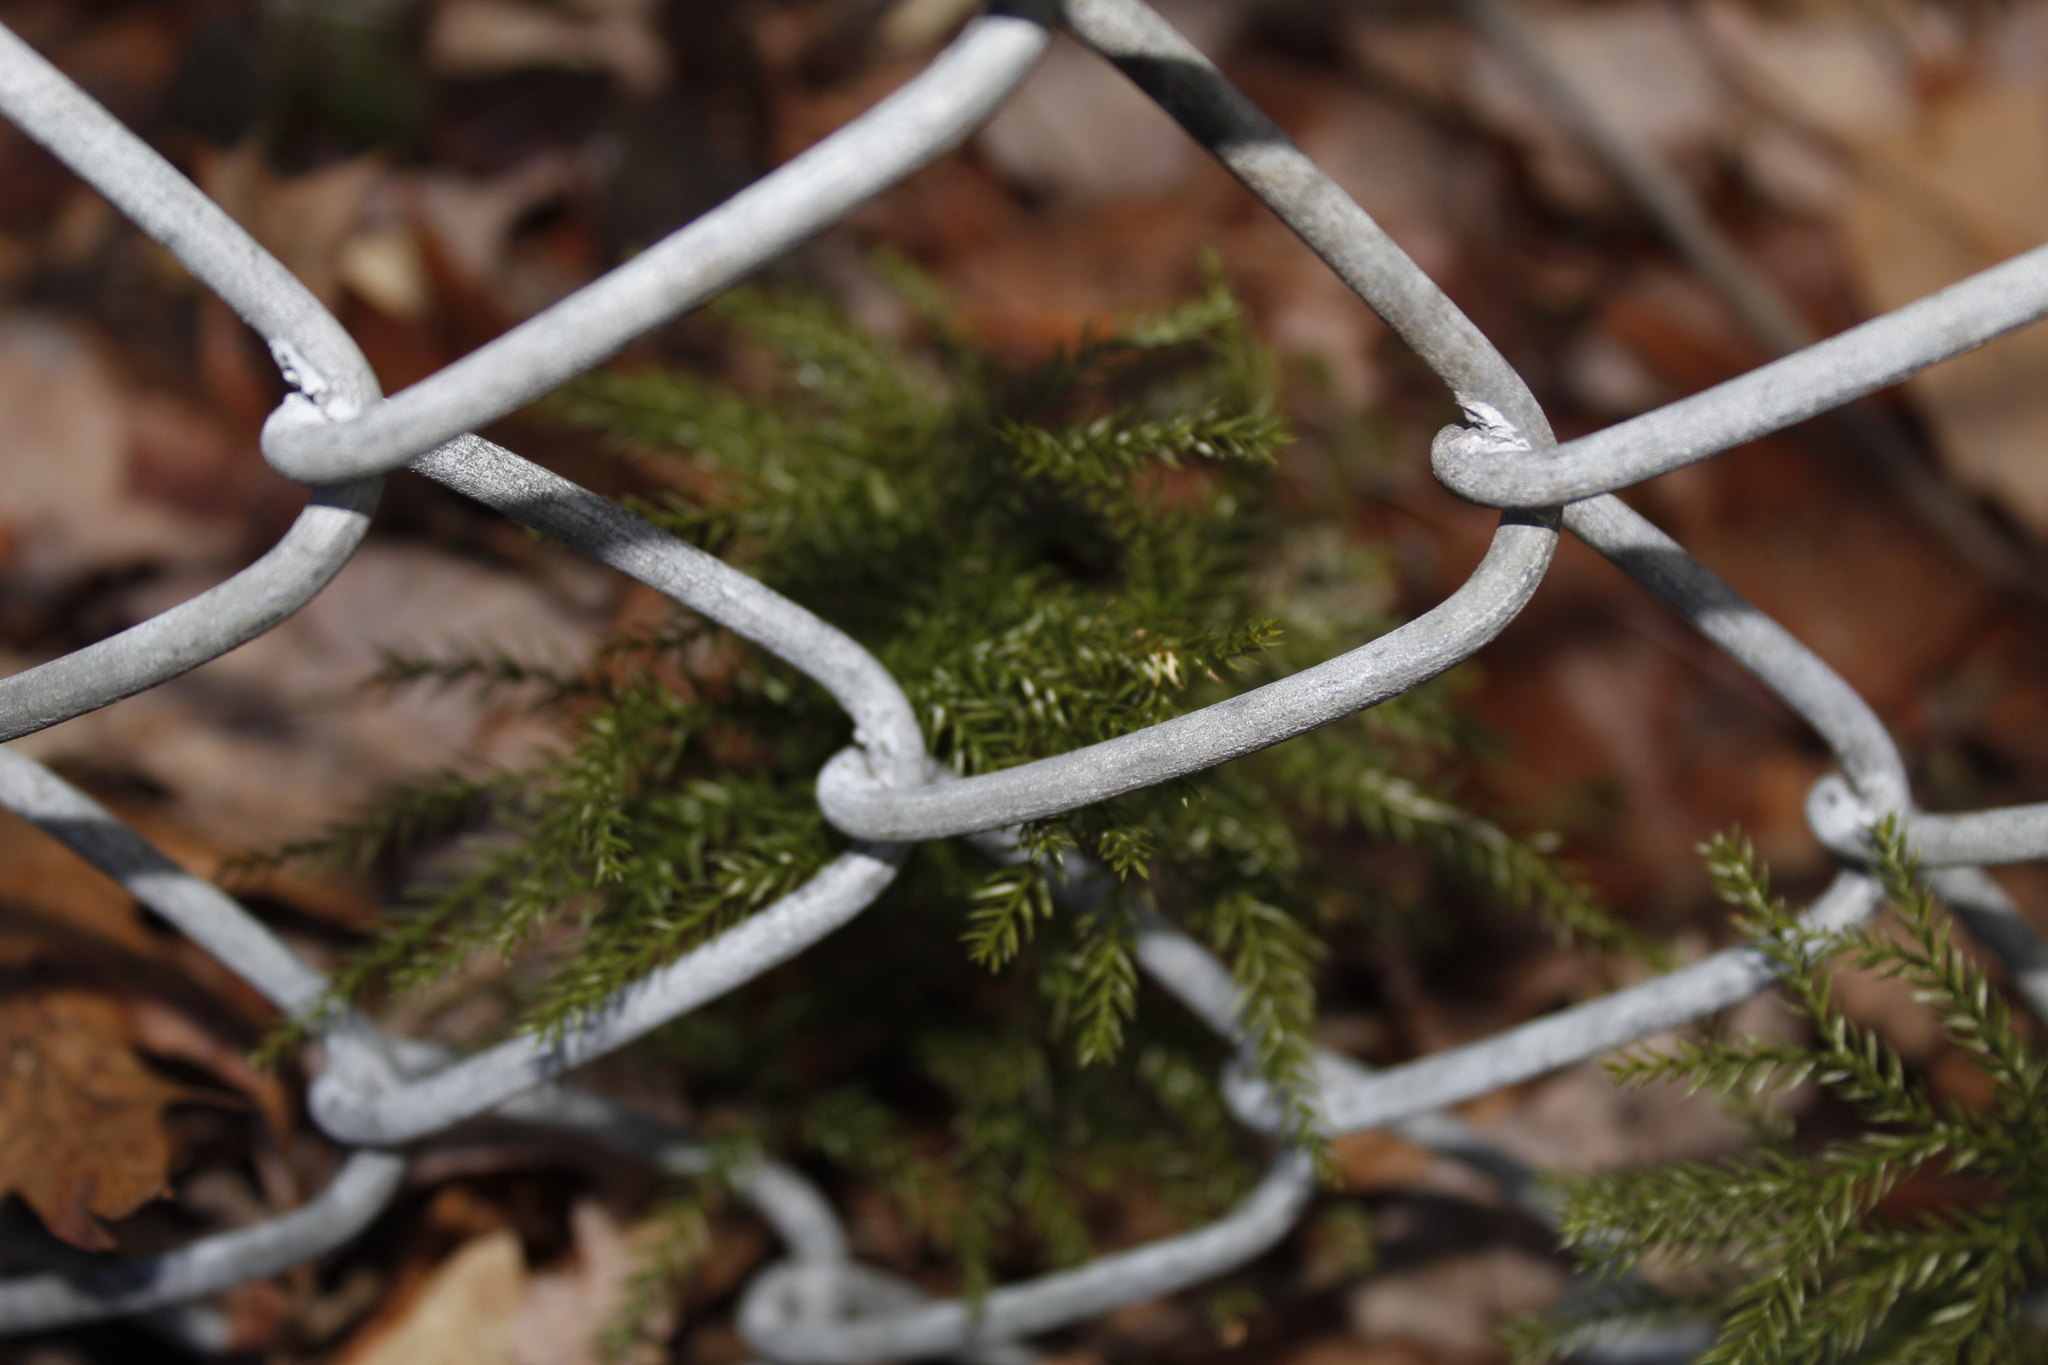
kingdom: Plantae
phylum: Tracheophyta
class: Lycopodiopsida
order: Lycopodiales
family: Lycopodiaceae
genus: Dendrolycopodium
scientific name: Dendrolycopodium obscurum
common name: Common ground-pine
